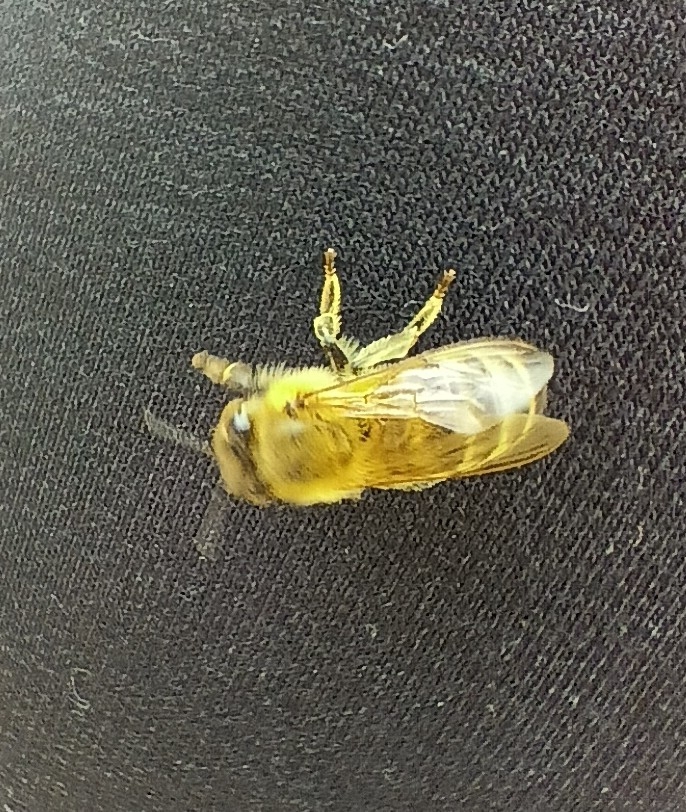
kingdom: Animalia
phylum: Arthropoda
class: Insecta
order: Hymenoptera
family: Apidae
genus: Apis
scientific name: Apis mellifera
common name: Honey bee
